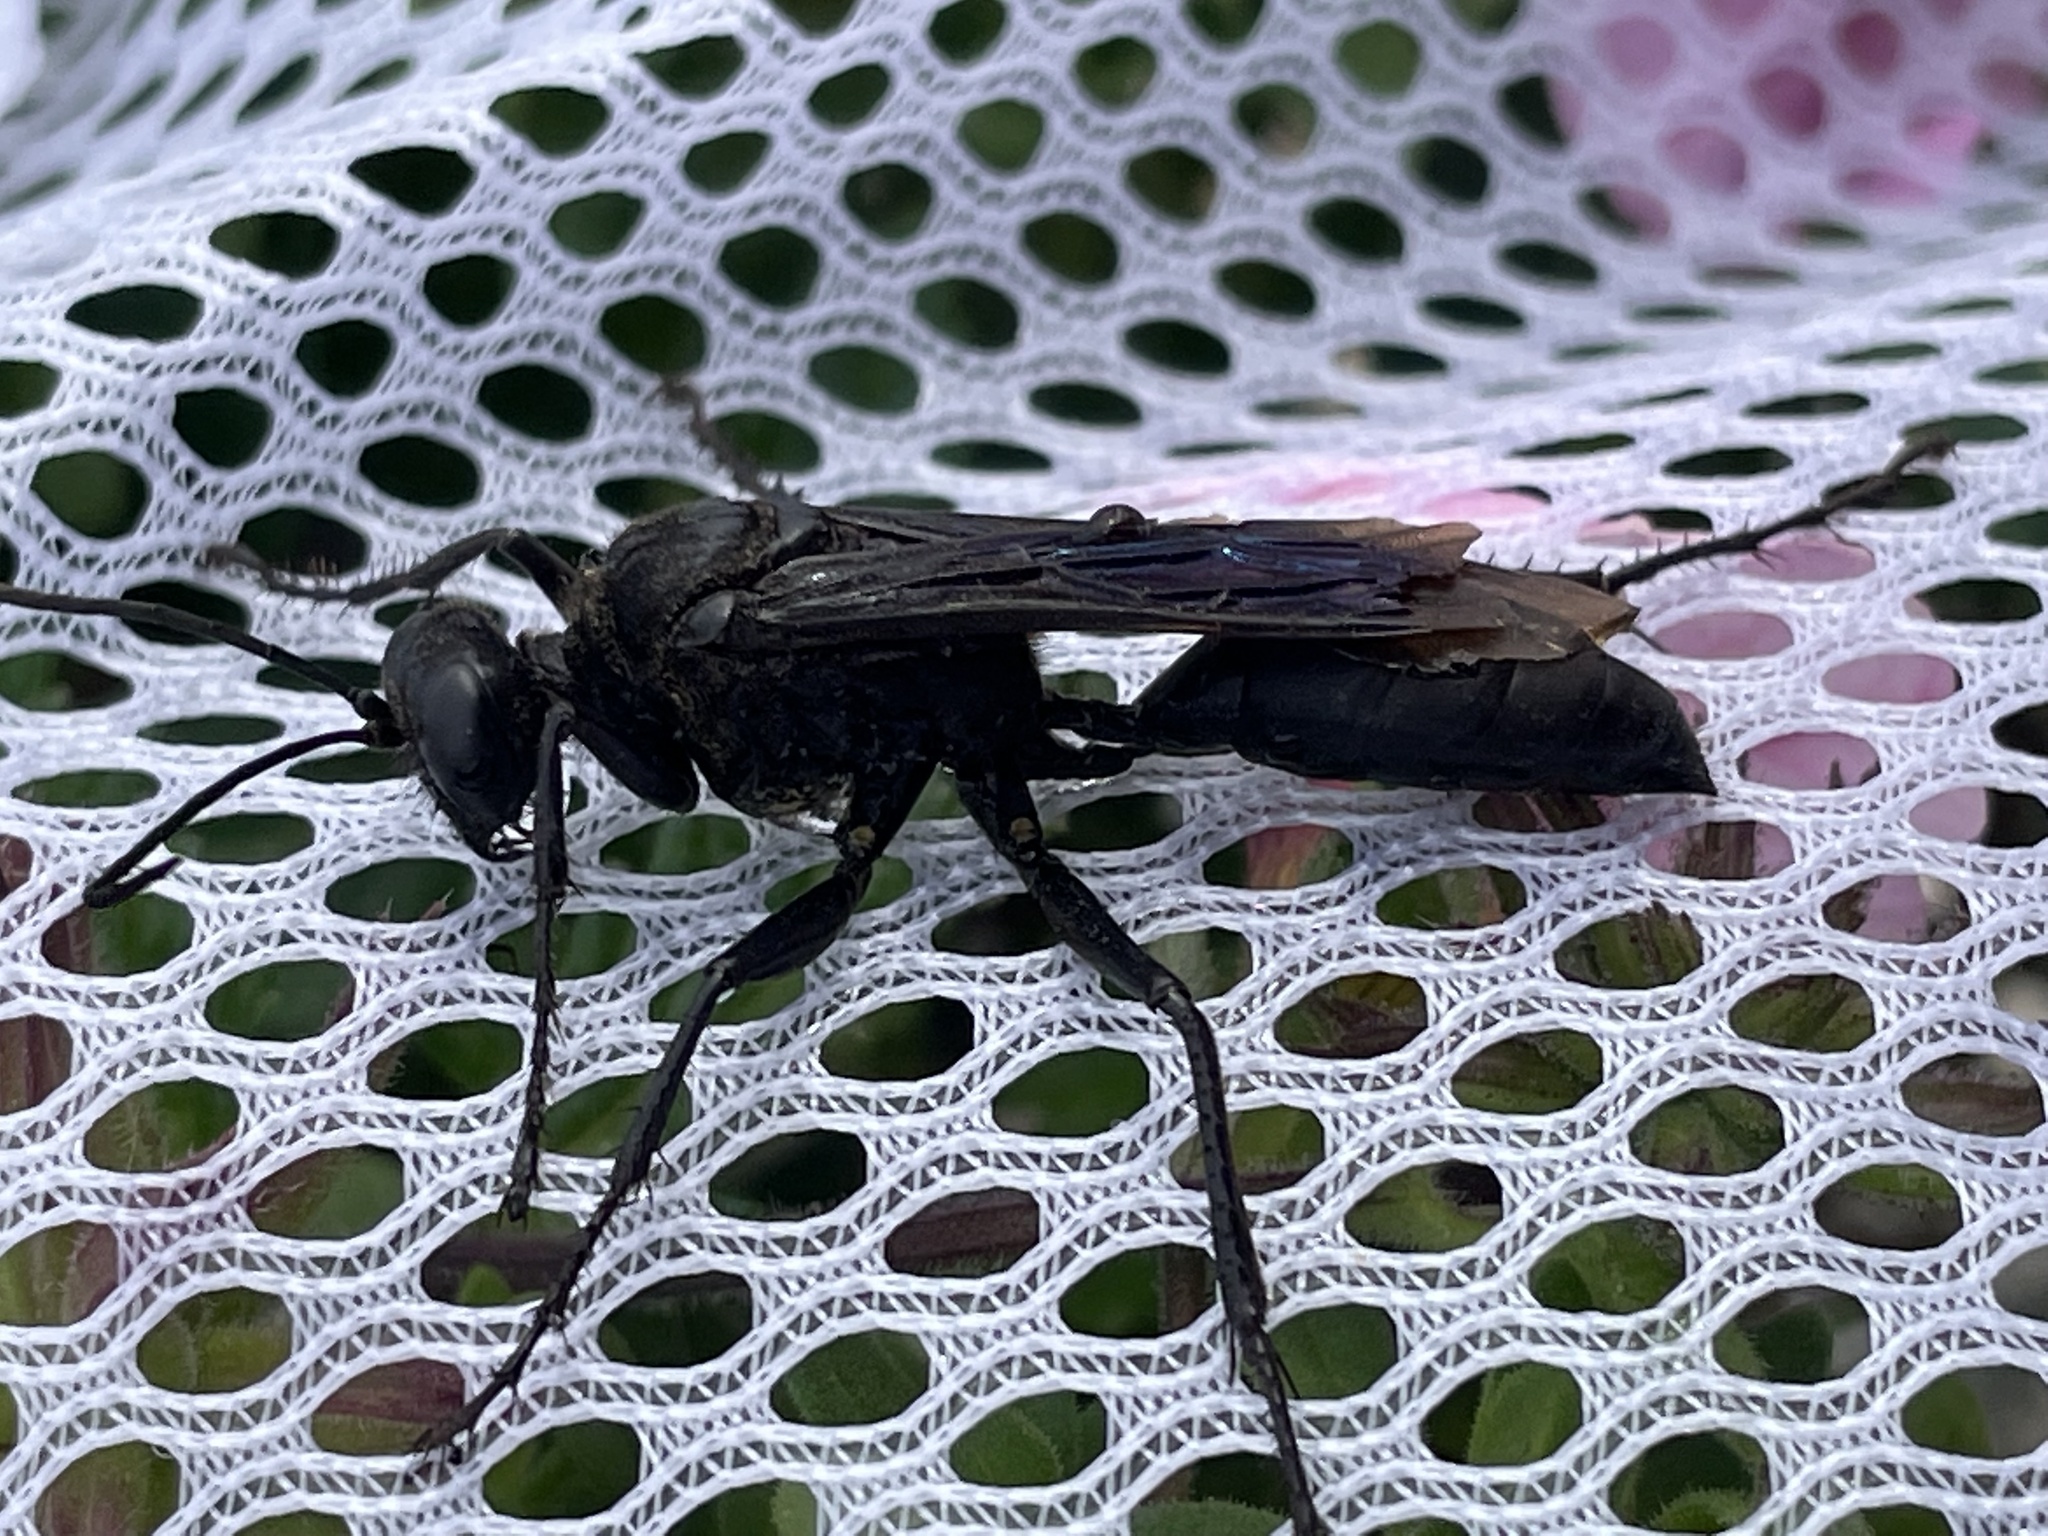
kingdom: Animalia
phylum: Arthropoda
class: Insecta
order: Hymenoptera
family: Sphecidae
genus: Sphex
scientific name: Sphex pensylvanicus
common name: Great black digger wasp
